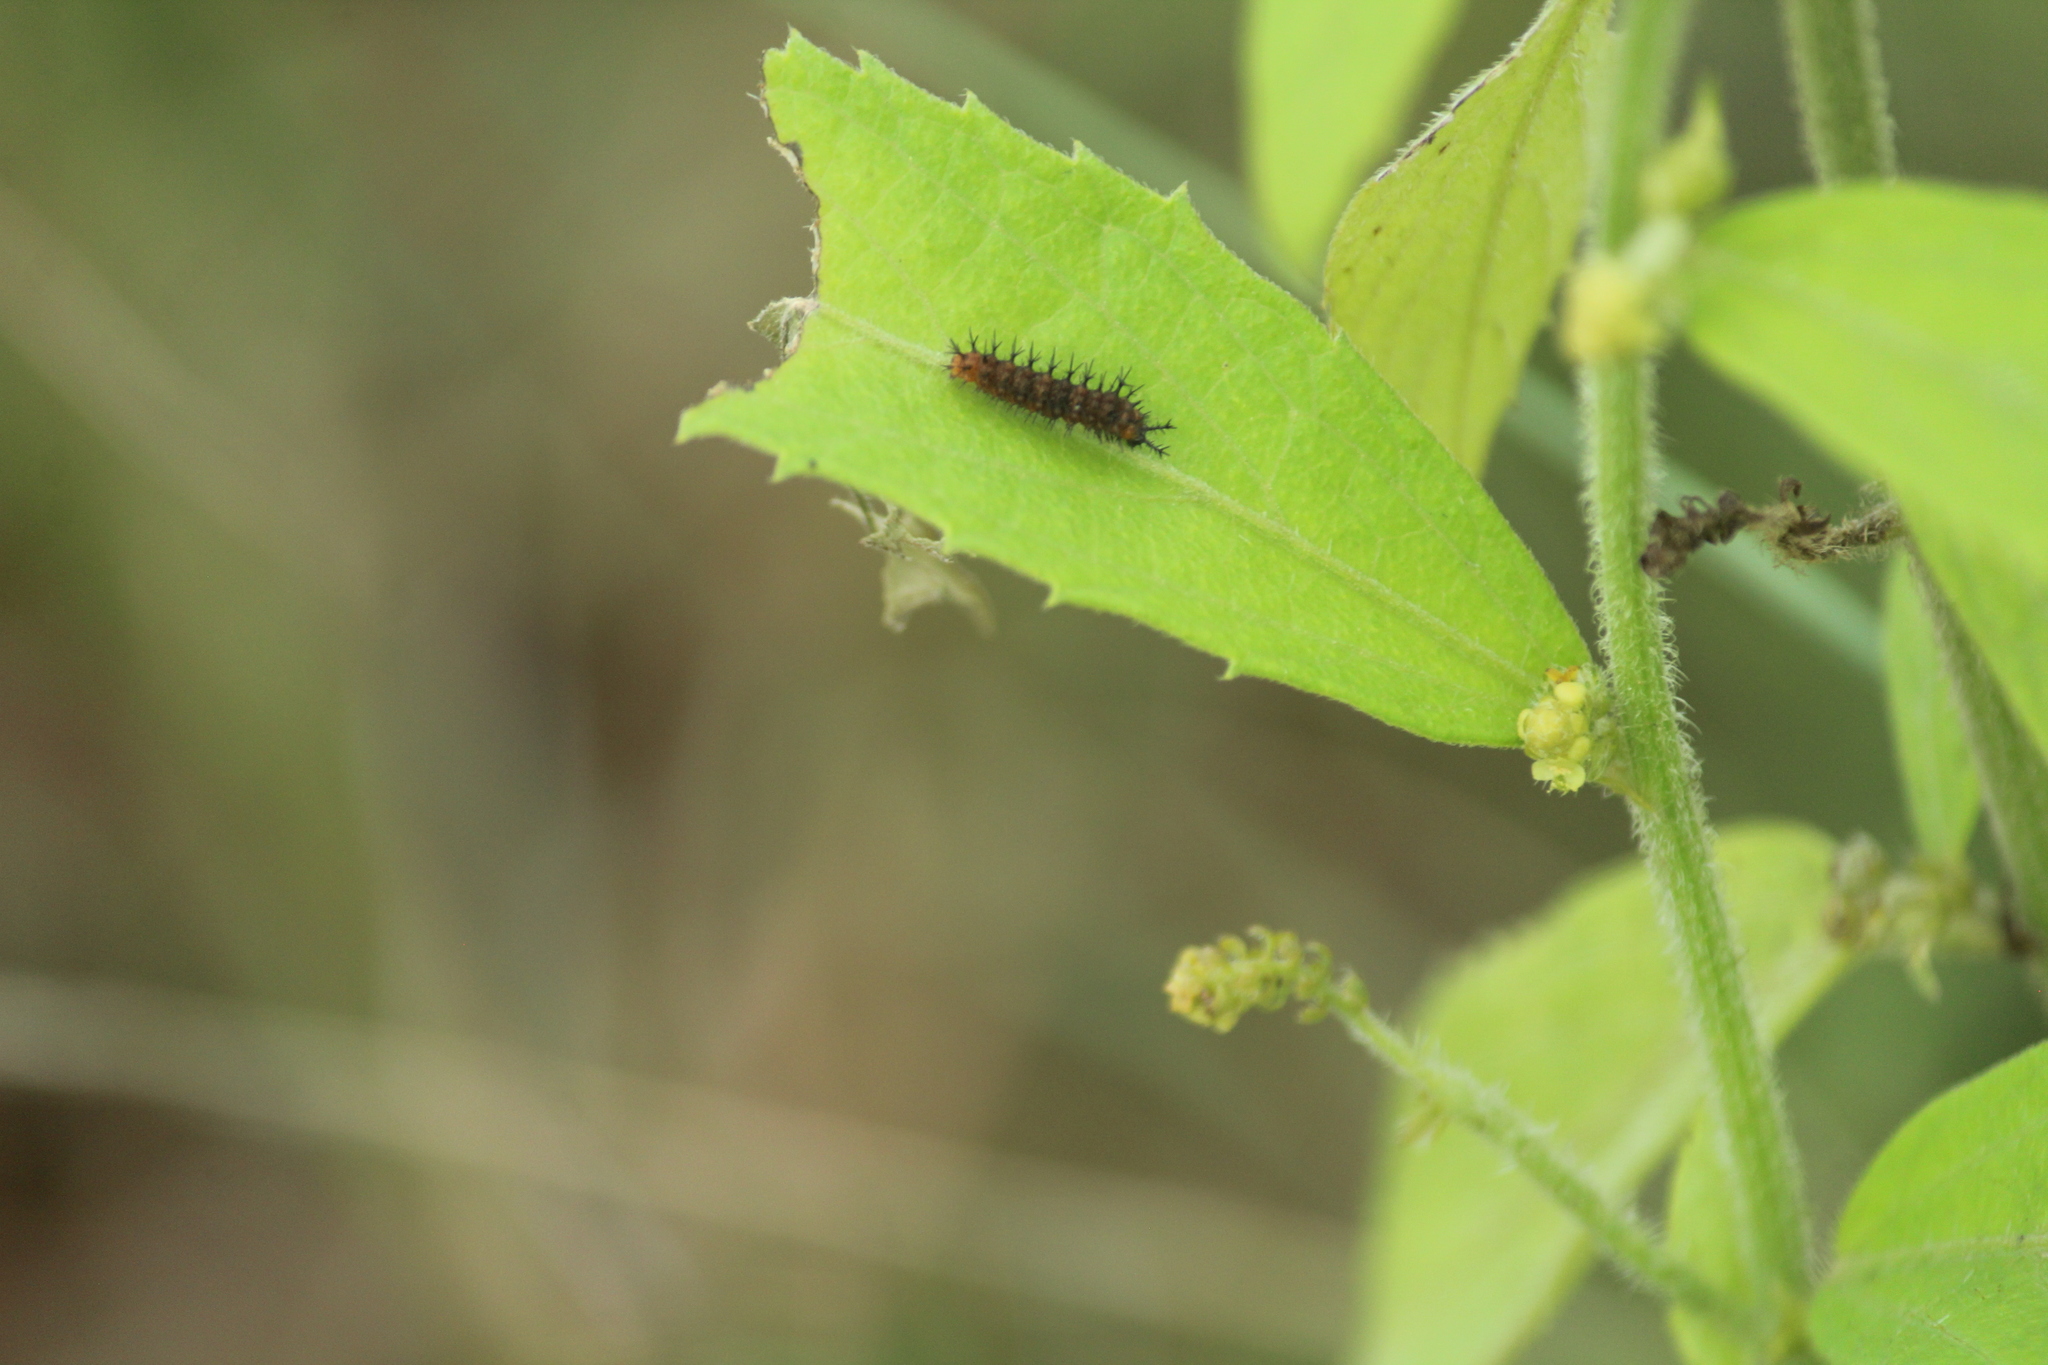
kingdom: Animalia
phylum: Arthropoda
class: Insecta
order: Lepidoptera
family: Nymphalidae
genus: Ariadne
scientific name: Ariadne ariadne
